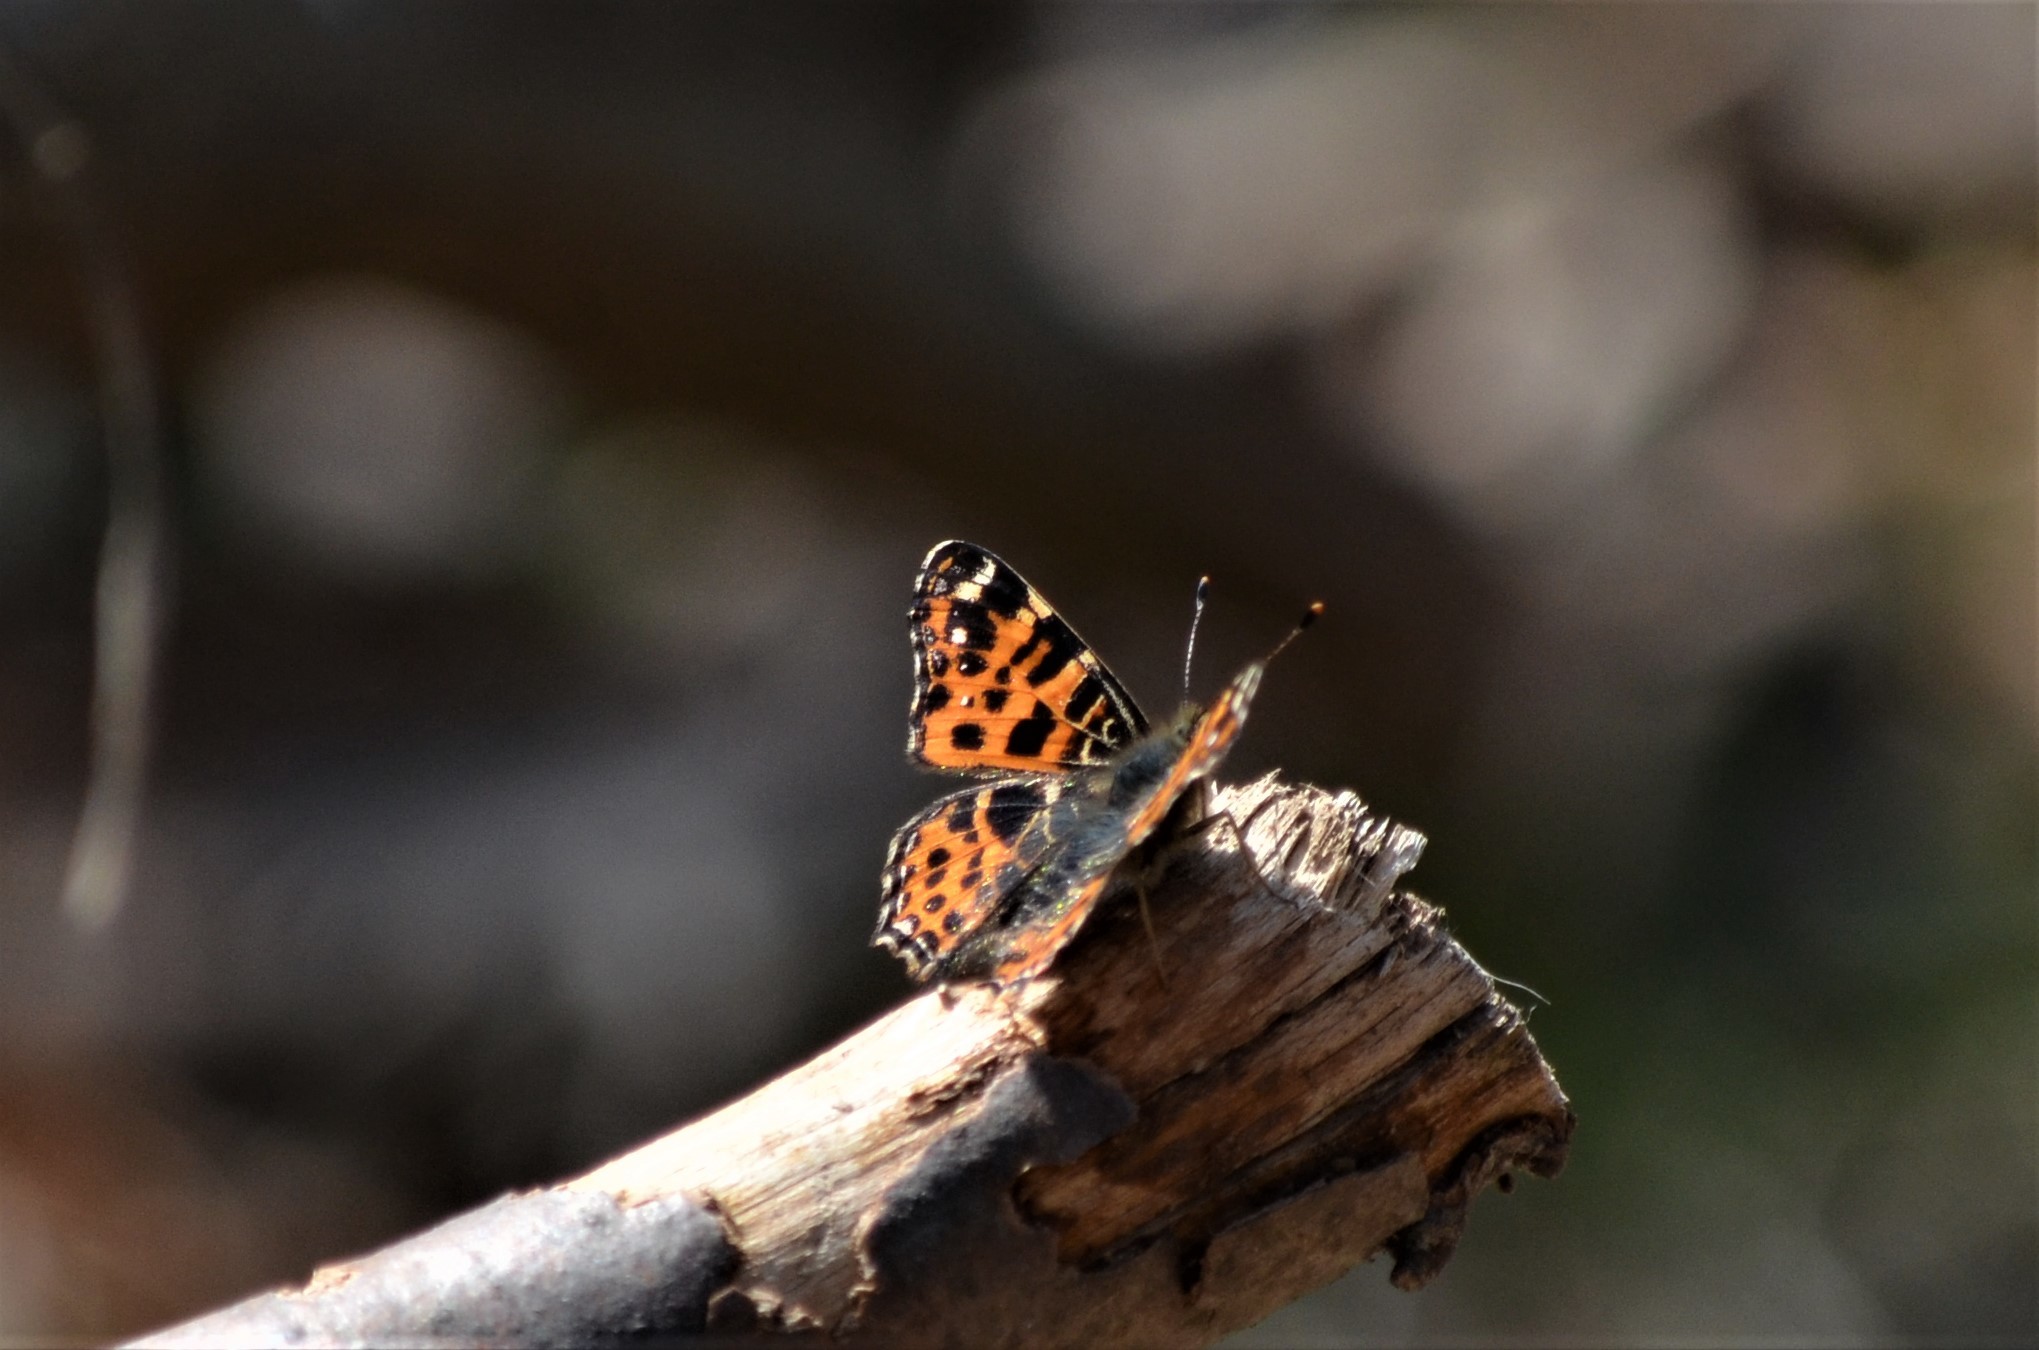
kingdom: Animalia
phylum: Arthropoda
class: Insecta
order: Lepidoptera
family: Nymphalidae
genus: Araschnia
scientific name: Araschnia levana
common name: Map butterfly
